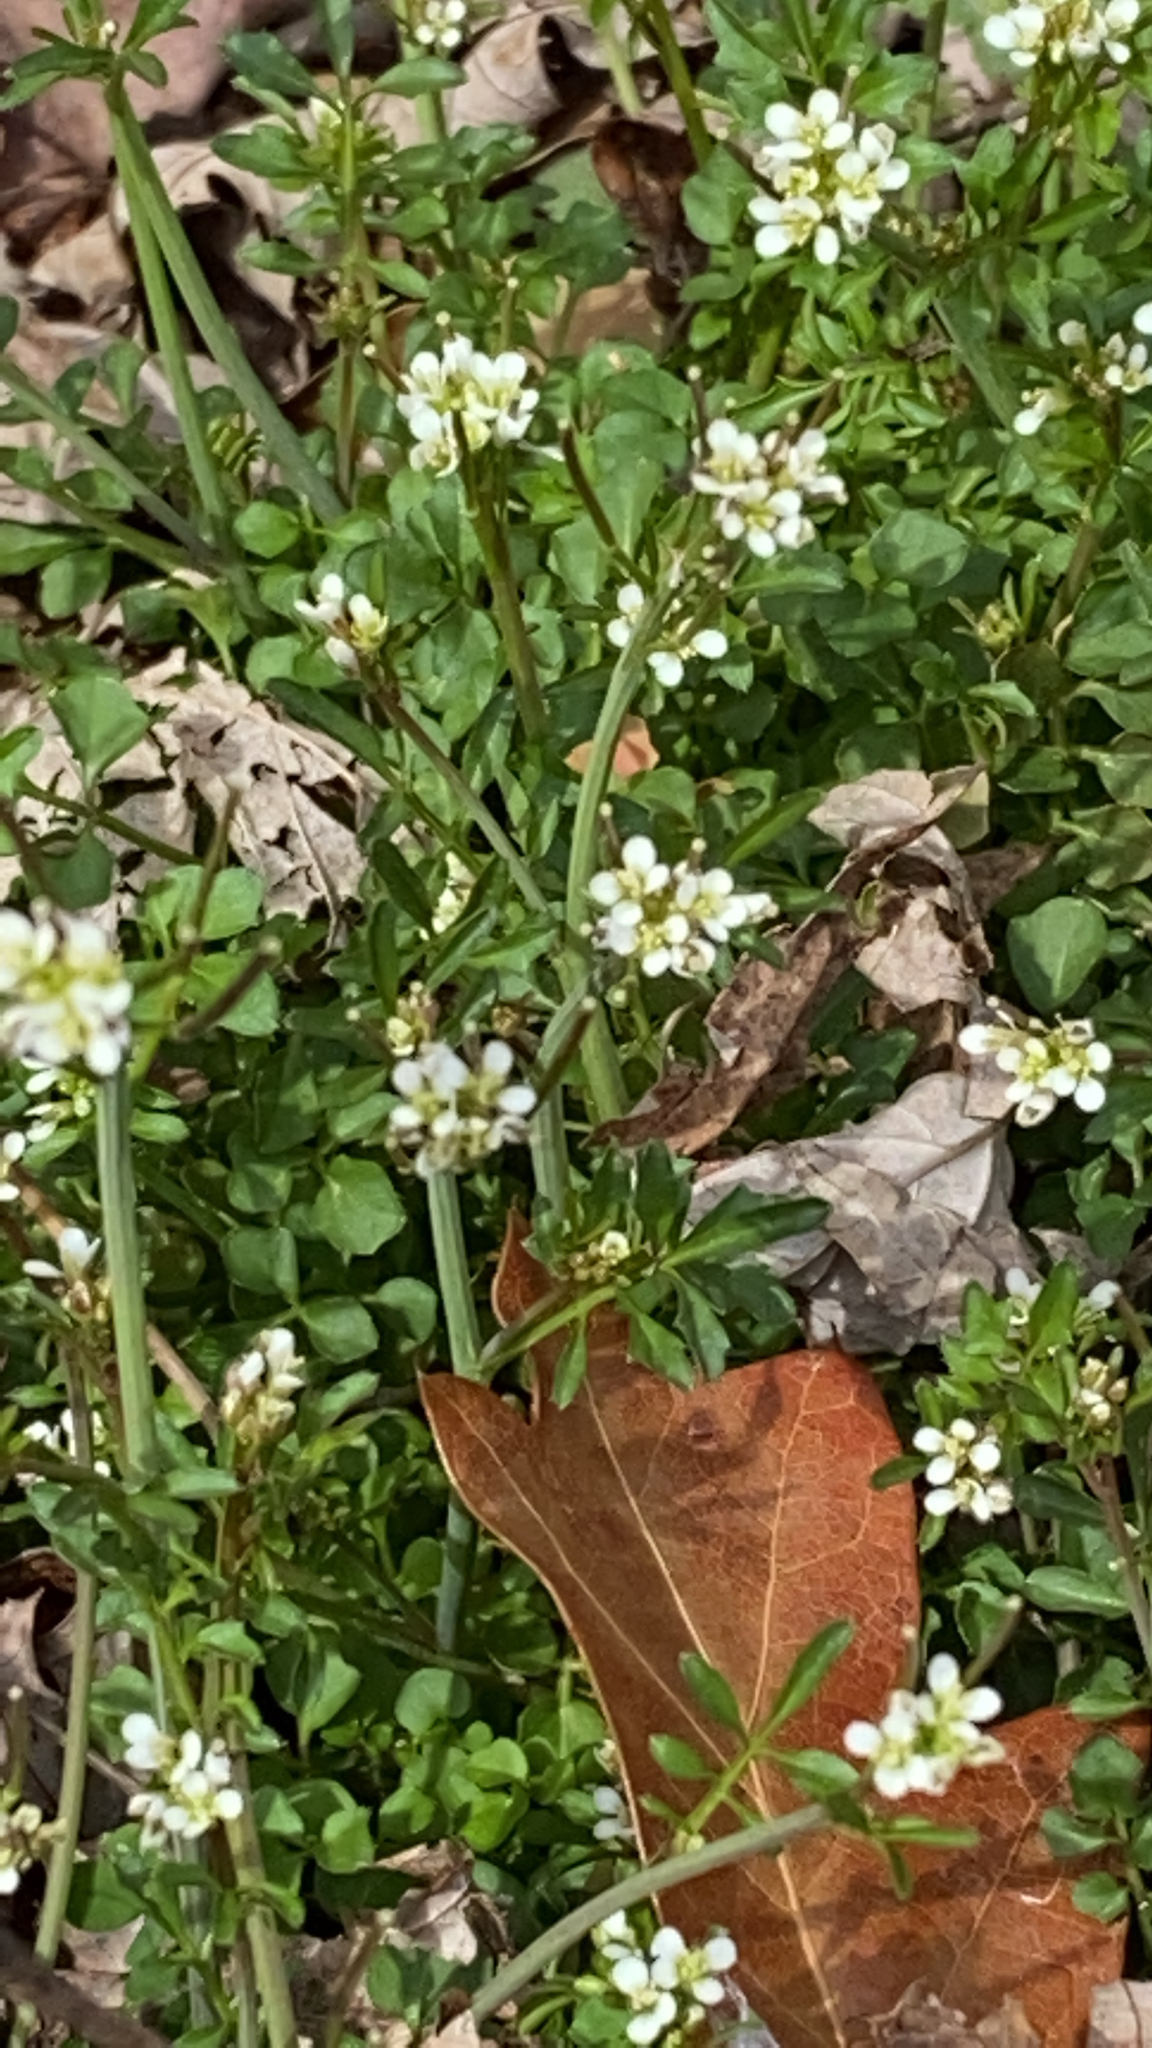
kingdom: Plantae
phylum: Tracheophyta
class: Magnoliopsida
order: Brassicales
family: Brassicaceae
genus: Cardamine
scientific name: Cardamine hirsuta
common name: Hairy bittercress
